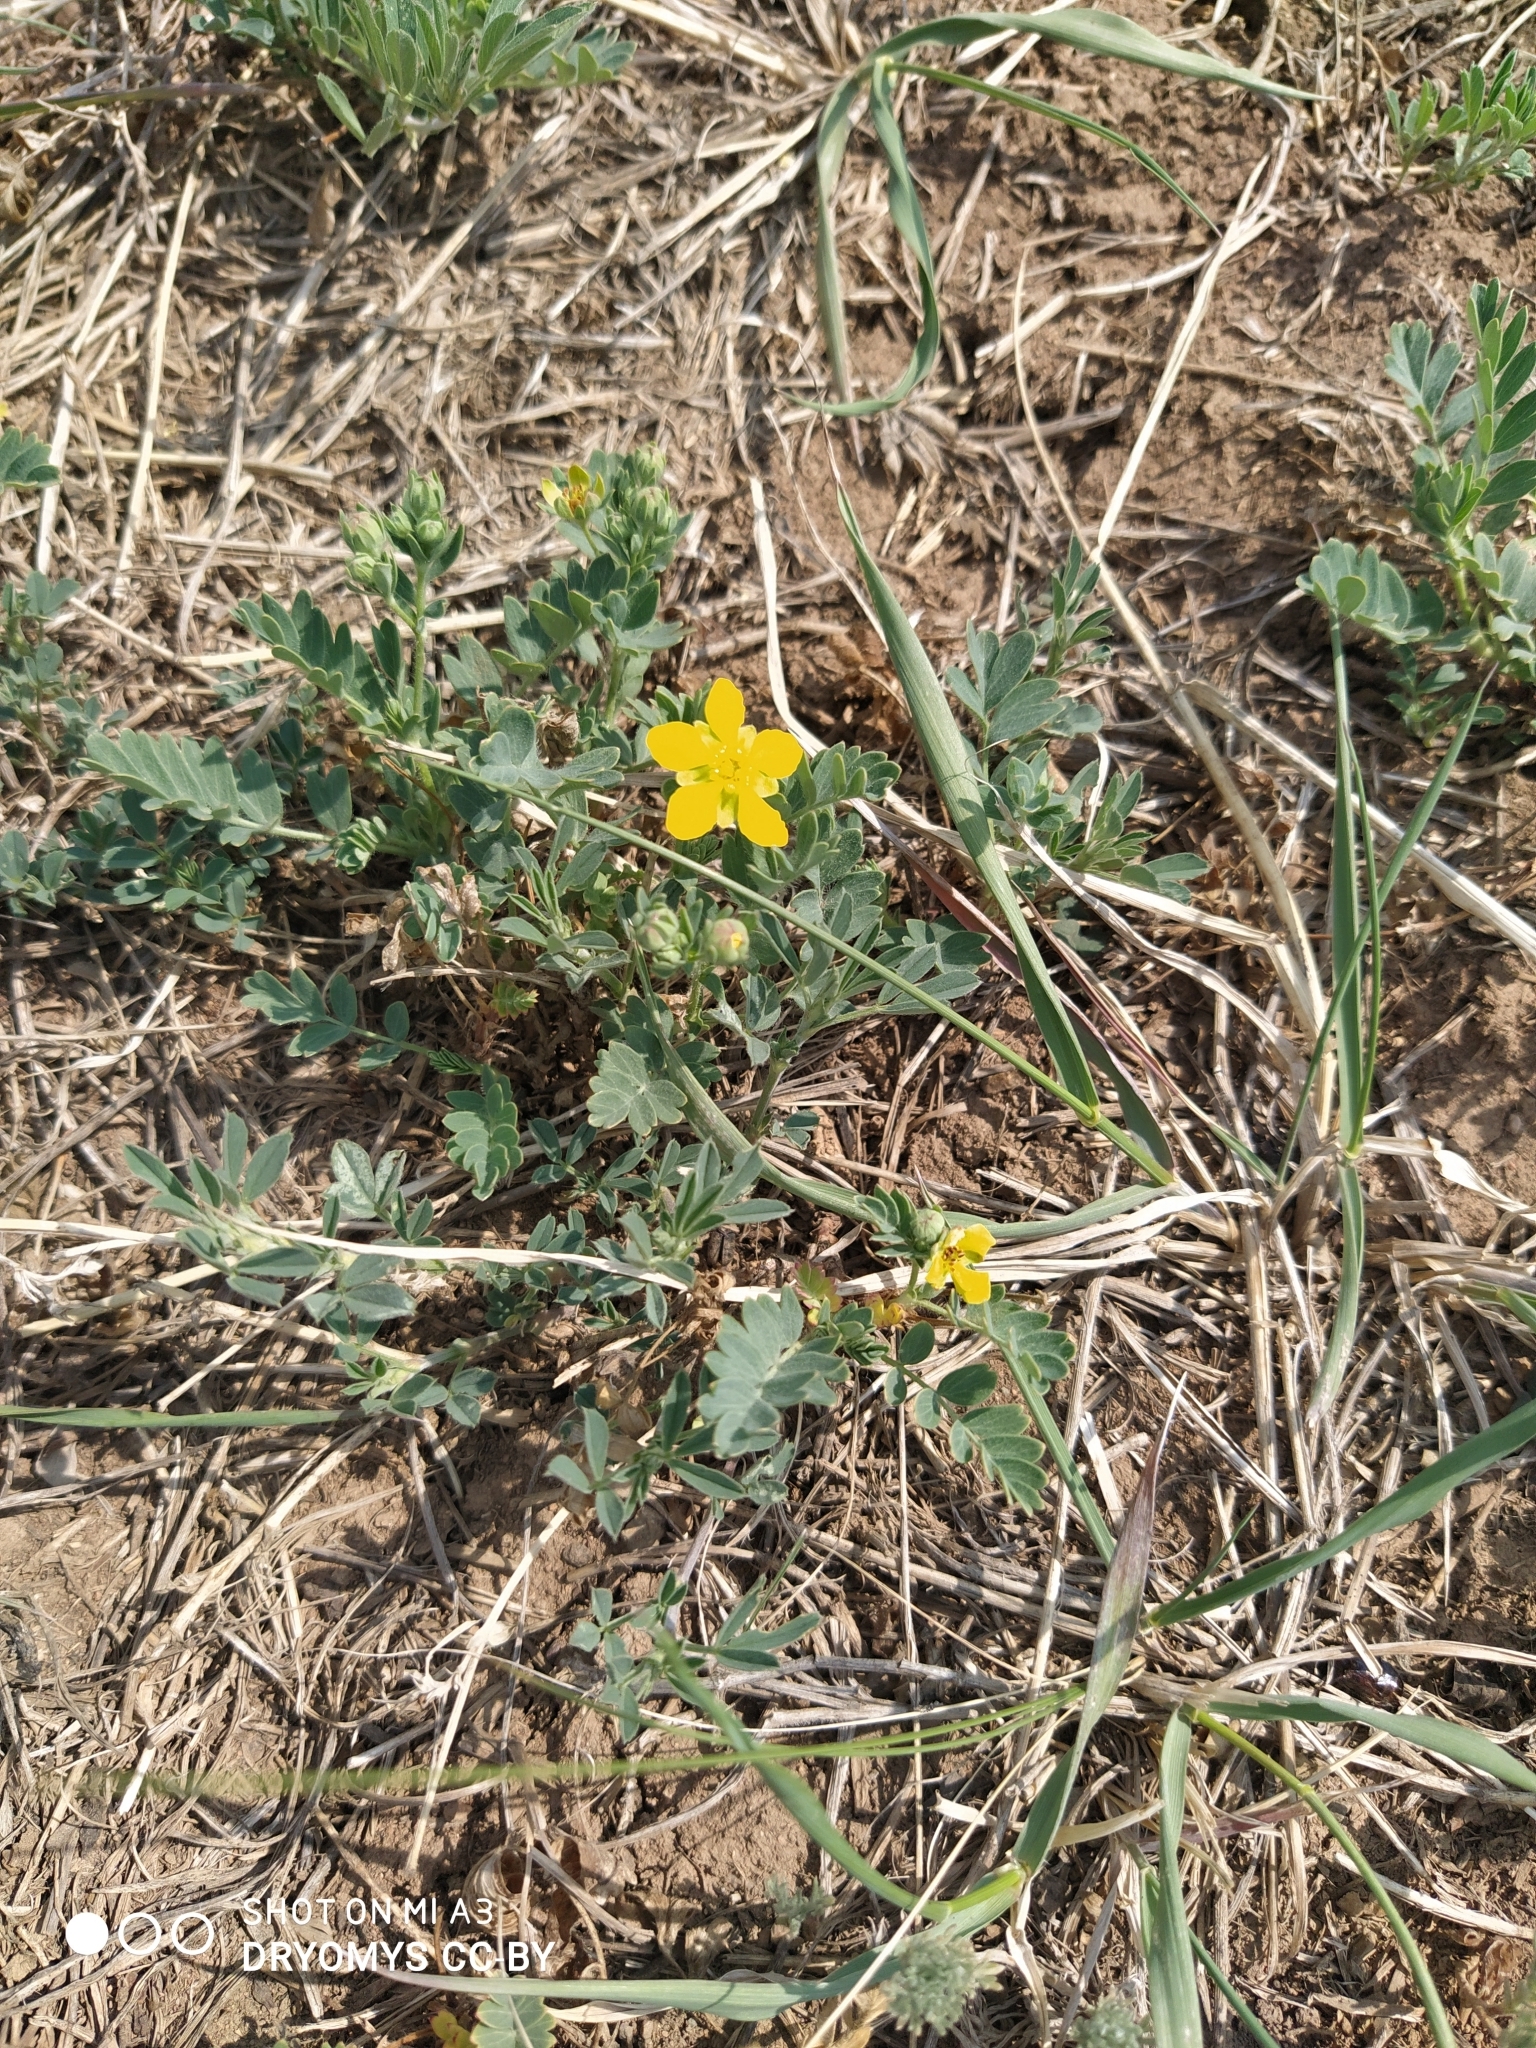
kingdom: Plantae
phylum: Tracheophyta
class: Magnoliopsida
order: Rosales
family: Rosaceae
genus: Sibbaldianthe
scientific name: Sibbaldianthe bifurca
